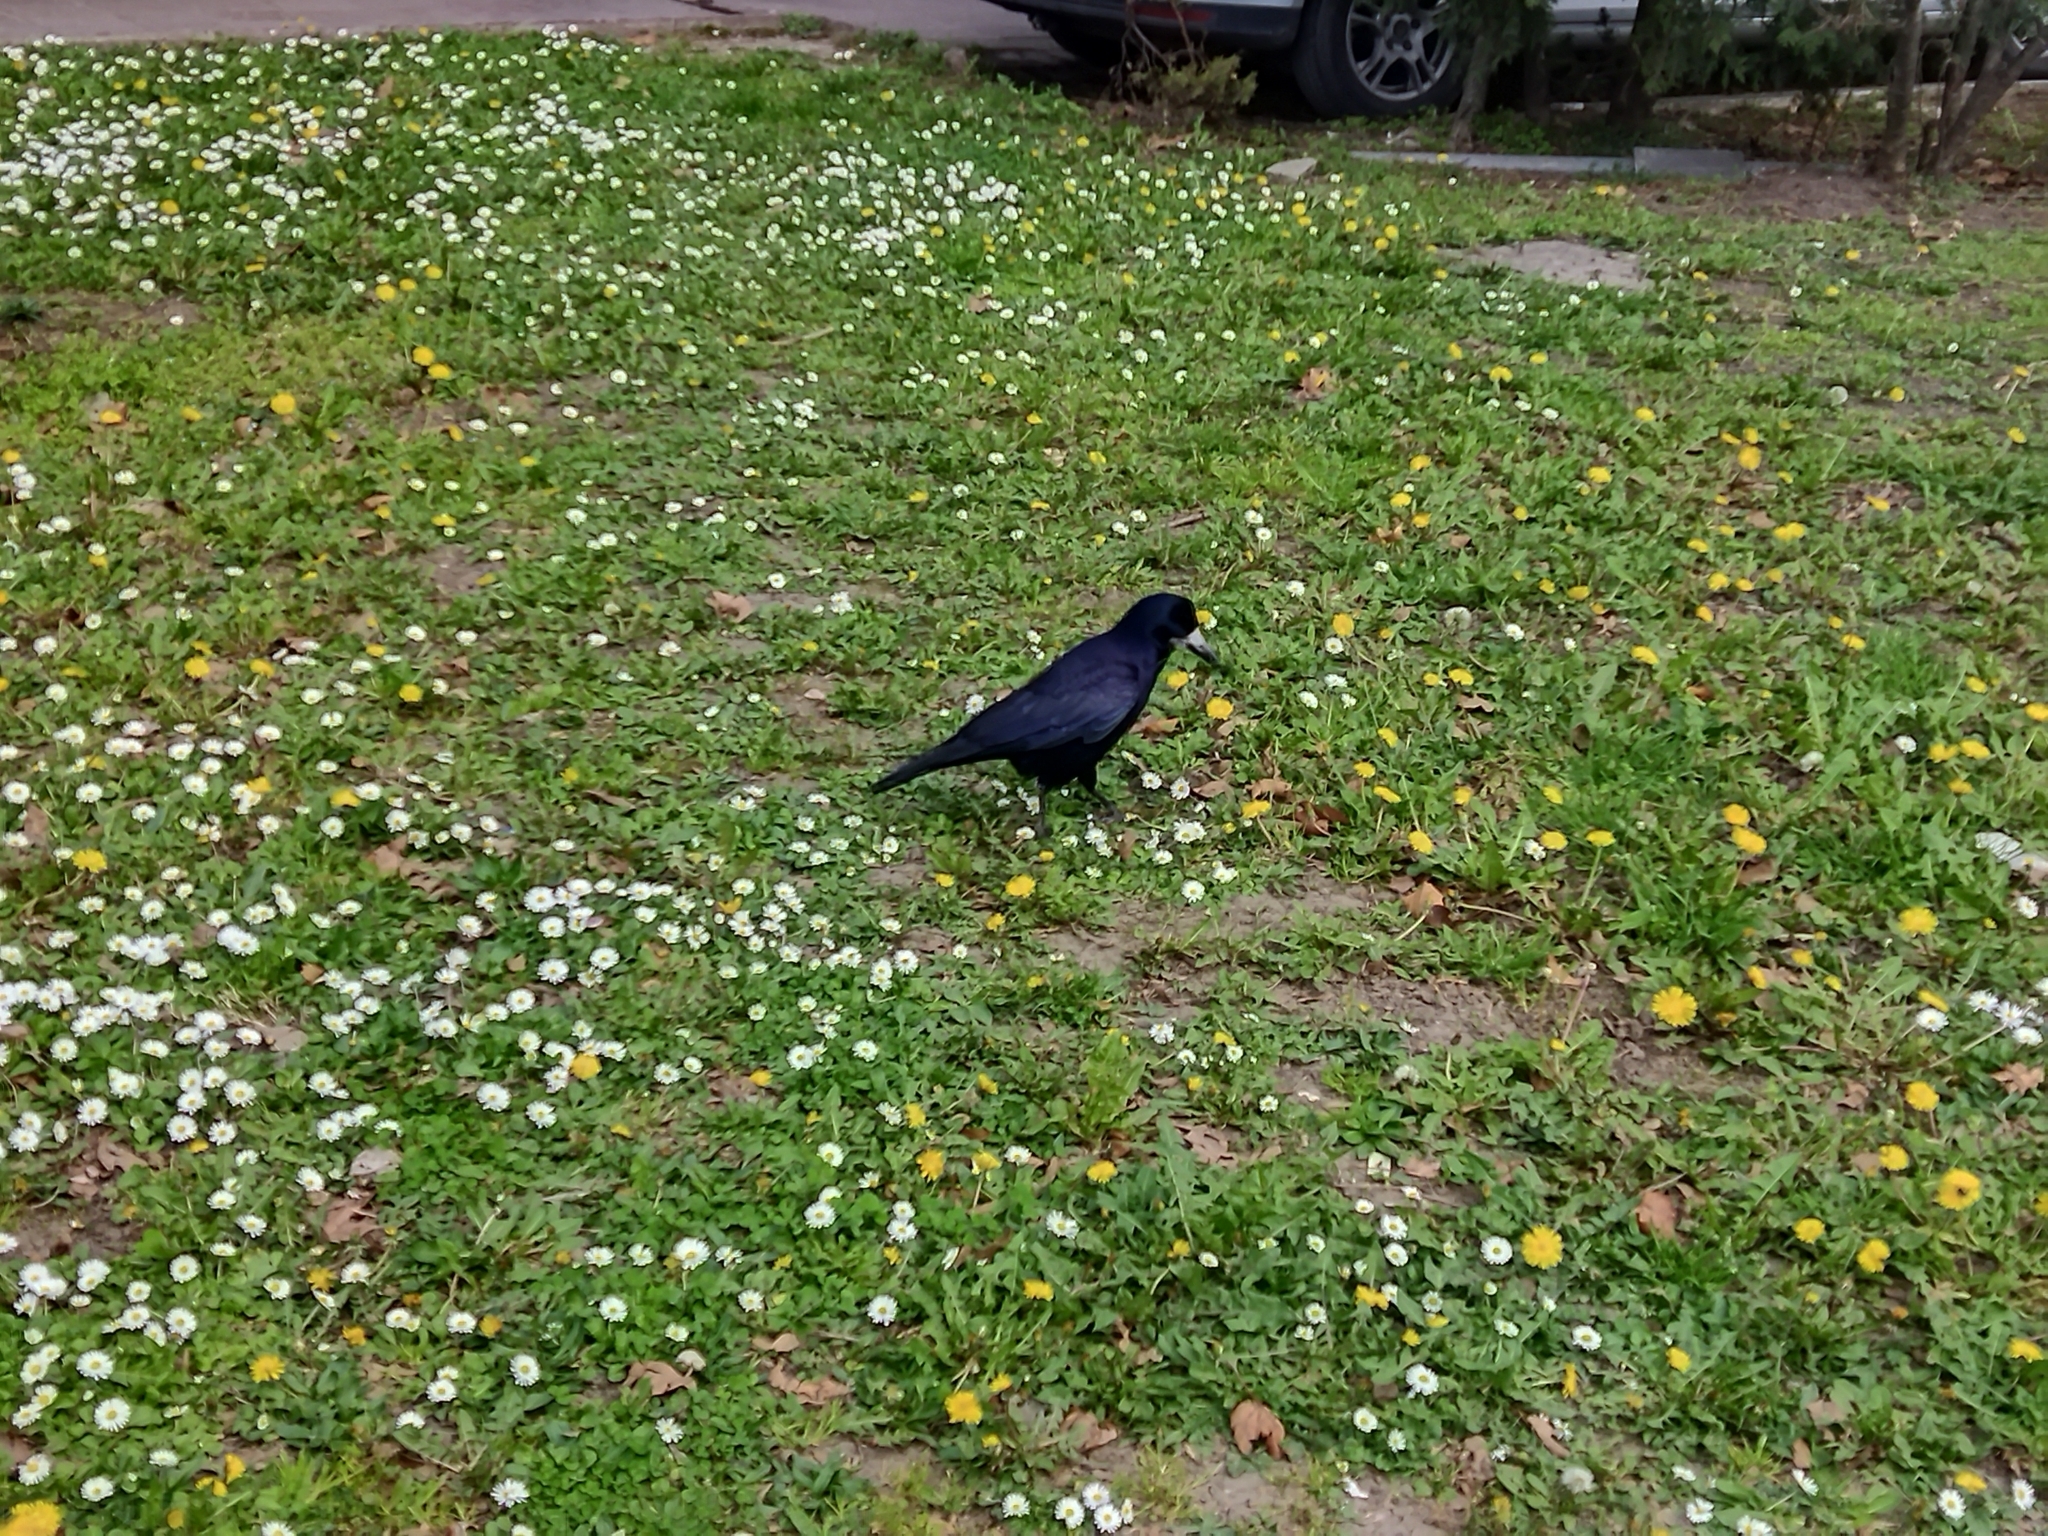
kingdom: Animalia
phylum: Chordata
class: Aves
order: Passeriformes
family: Corvidae
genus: Corvus
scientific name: Corvus frugilegus
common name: Rook
